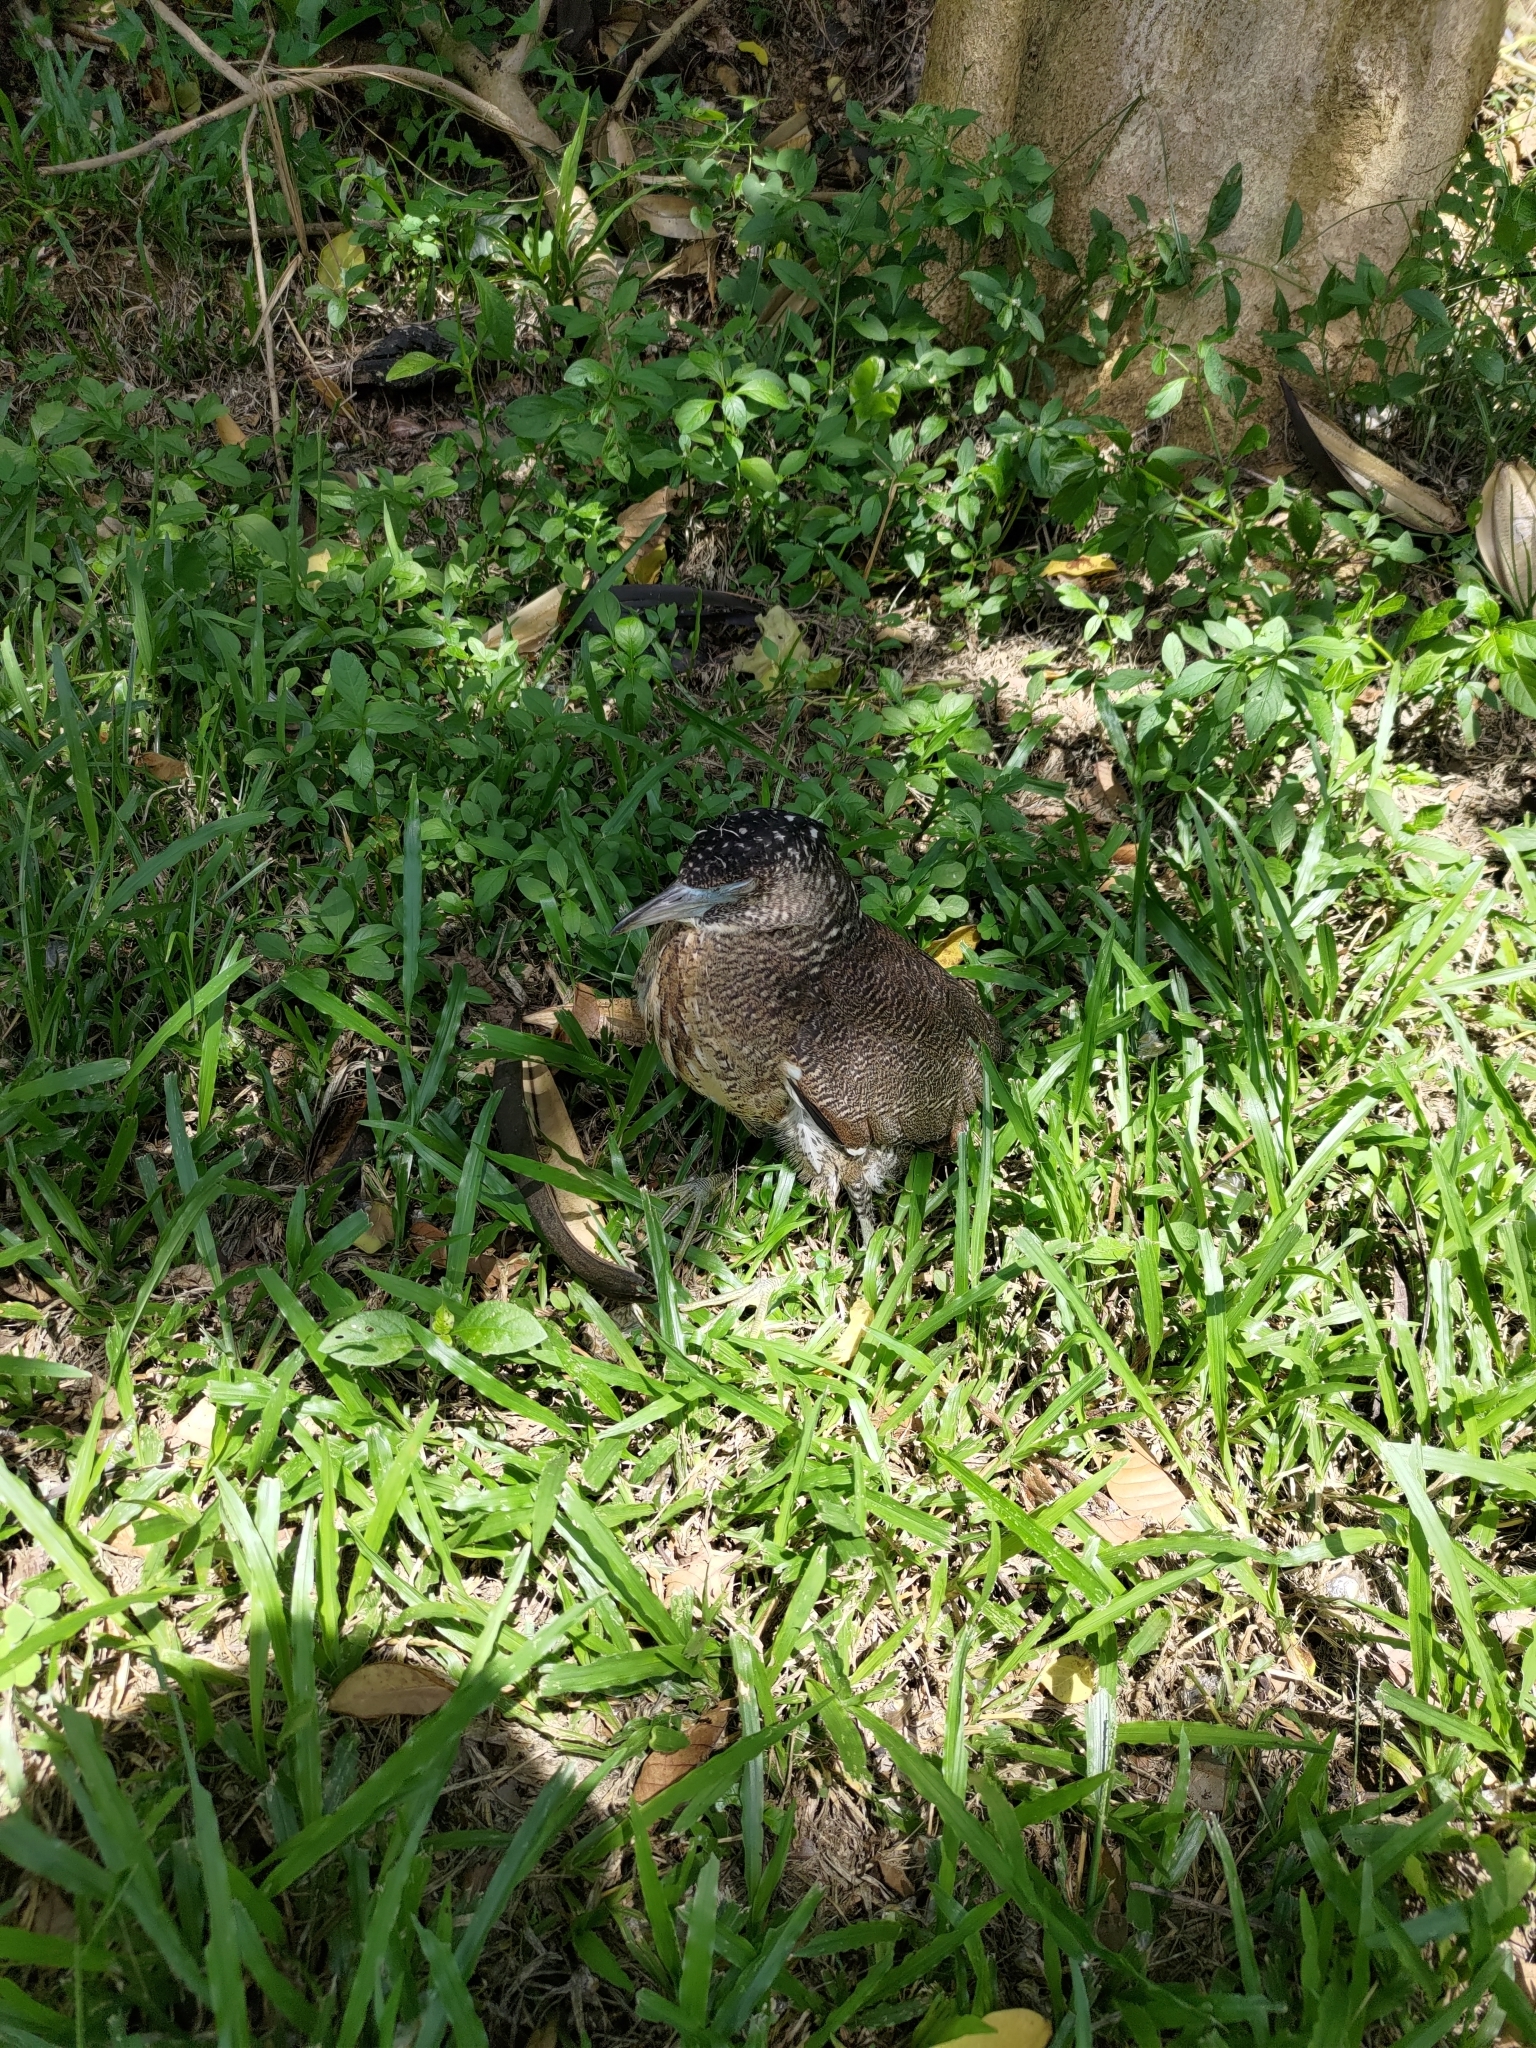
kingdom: Animalia
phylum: Chordata
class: Aves
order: Pelecaniformes
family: Ardeidae
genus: Gorsachius
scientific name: Gorsachius melanolophus
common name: Malayan night heron
